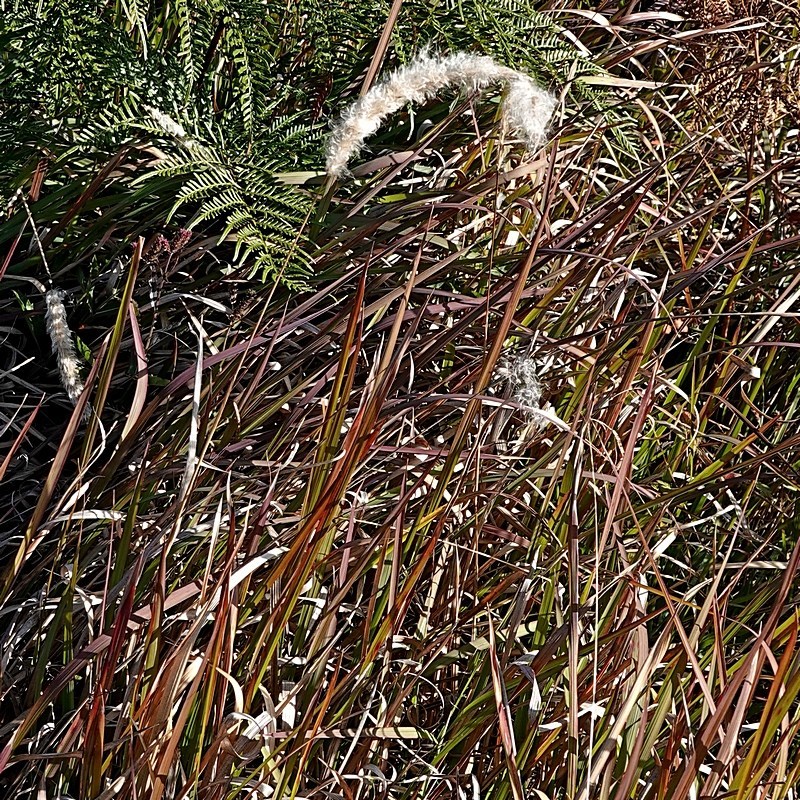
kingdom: Plantae
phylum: Tracheophyta
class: Liliopsida
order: Poales
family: Poaceae
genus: Imperata
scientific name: Imperata cylindrica
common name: Cogongrass
